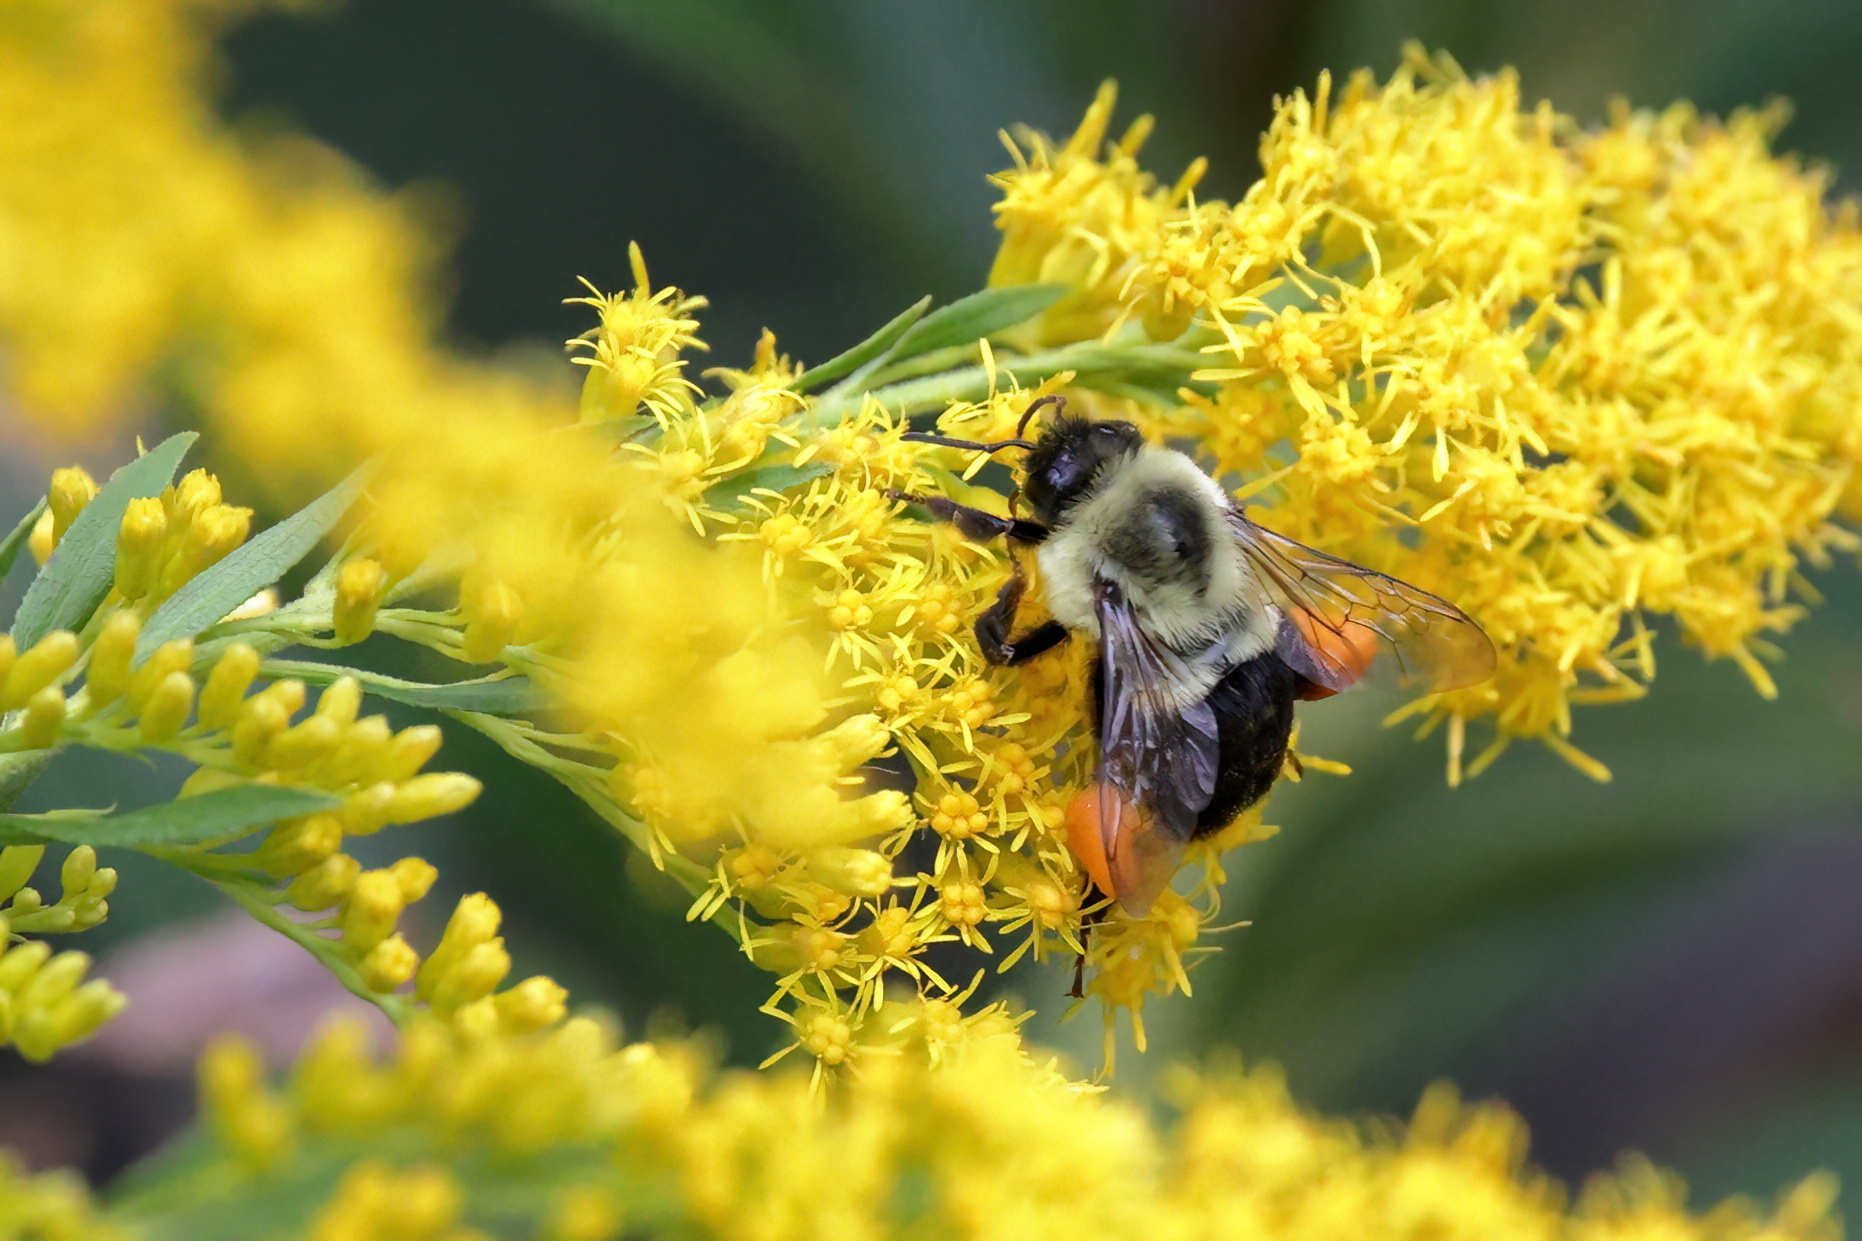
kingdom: Animalia
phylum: Arthropoda
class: Insecta
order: Hymenoptera
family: Apidae
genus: Bombus
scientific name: Bombus impatiens
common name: Common eastern bumble bee
